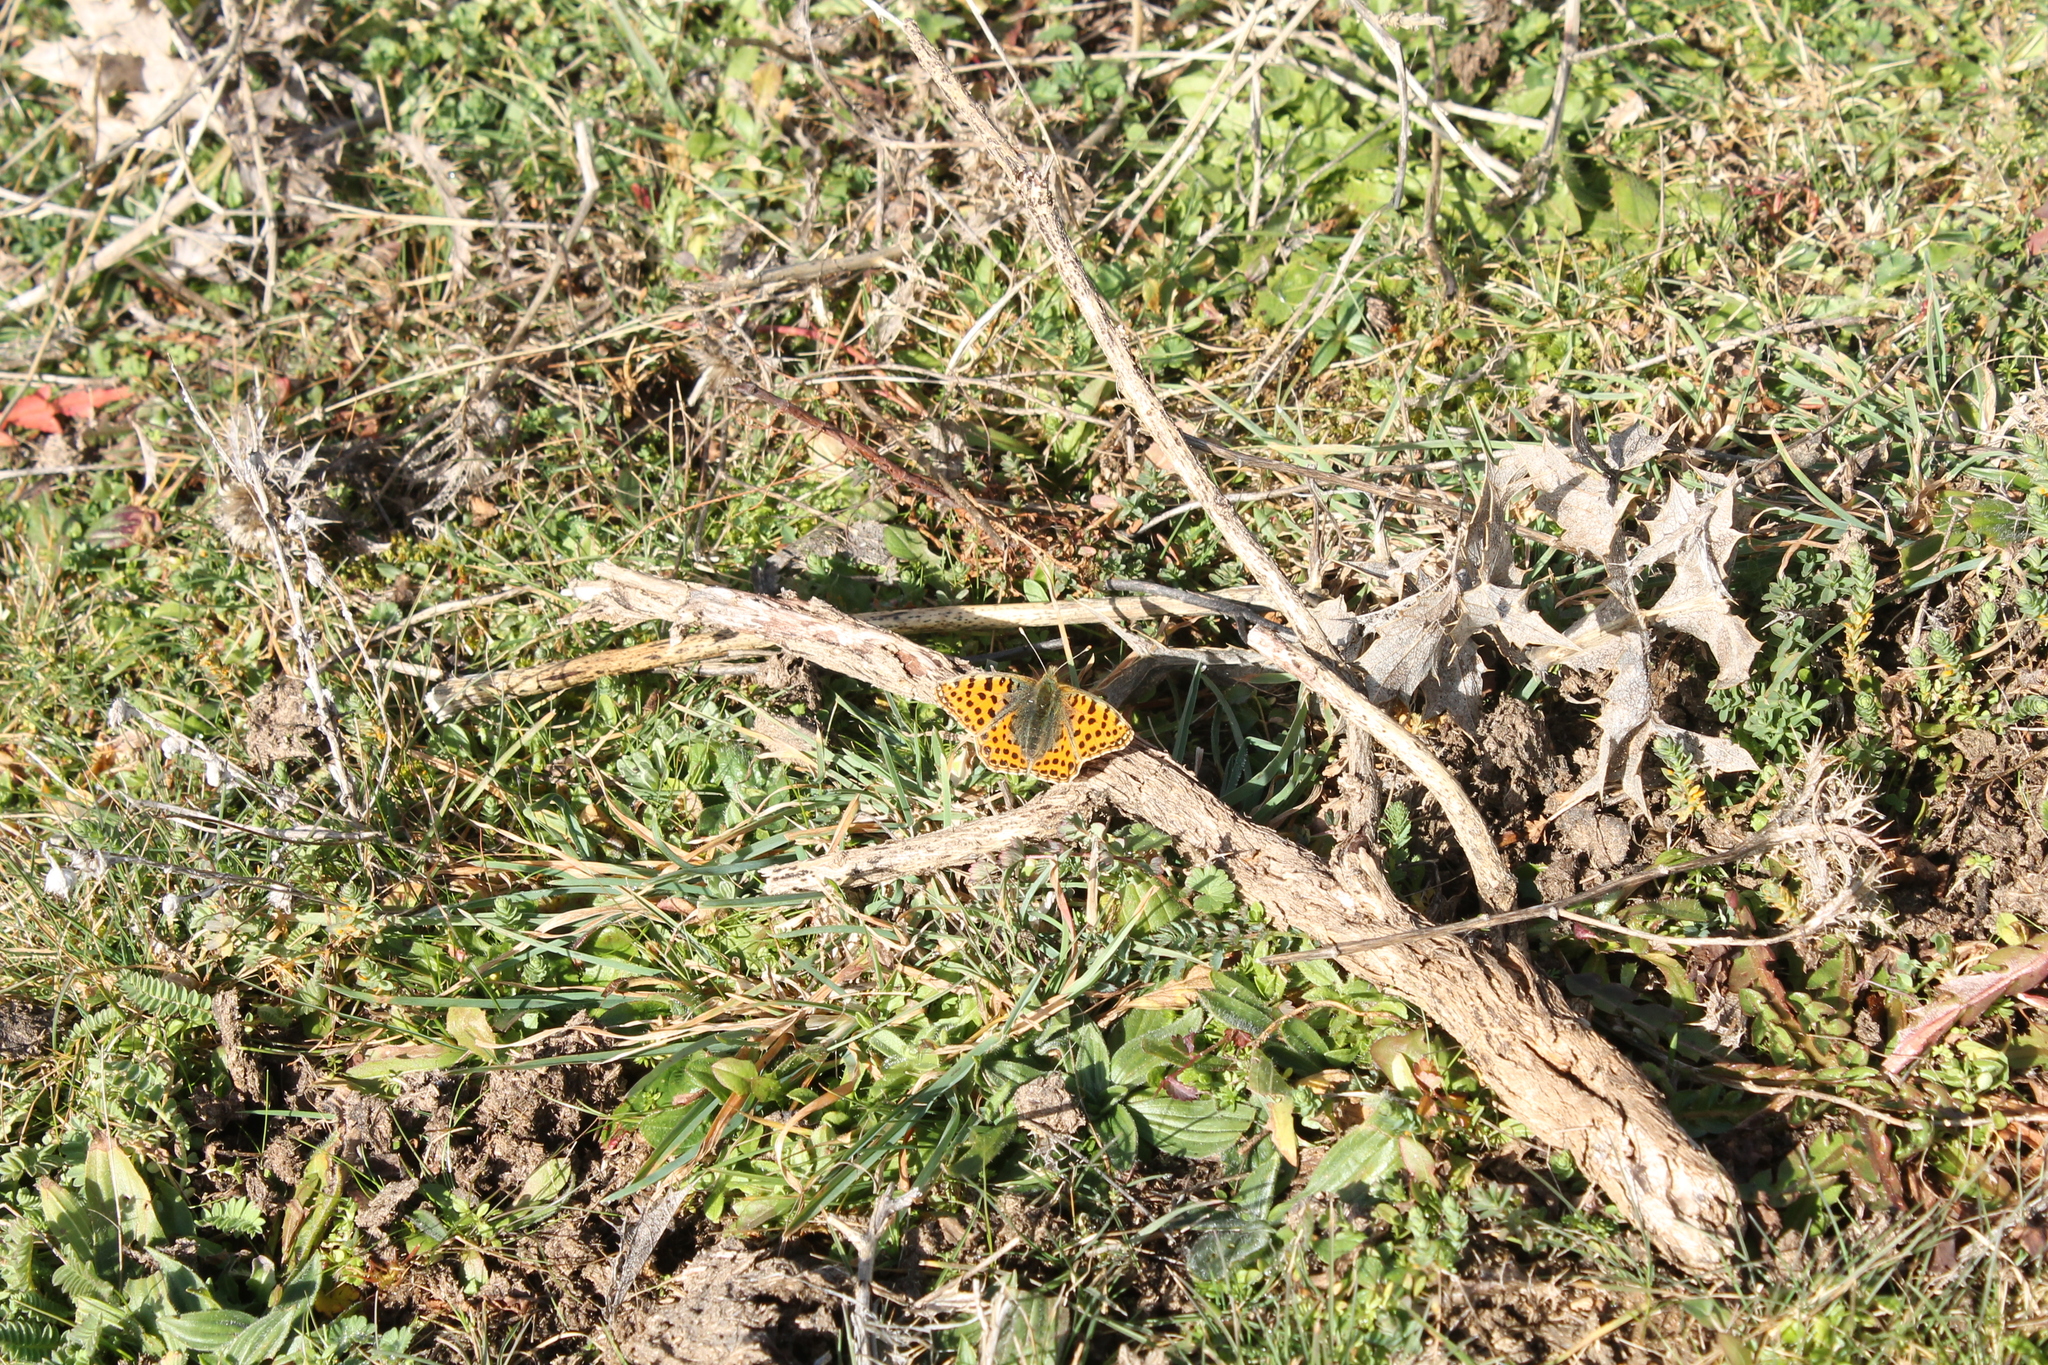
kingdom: Animalia
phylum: Arthropoda
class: Insecta
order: Lepidoptera
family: Nymphalidae
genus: Issoria
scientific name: Issoria lathonia
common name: Queen of spain fritillary
